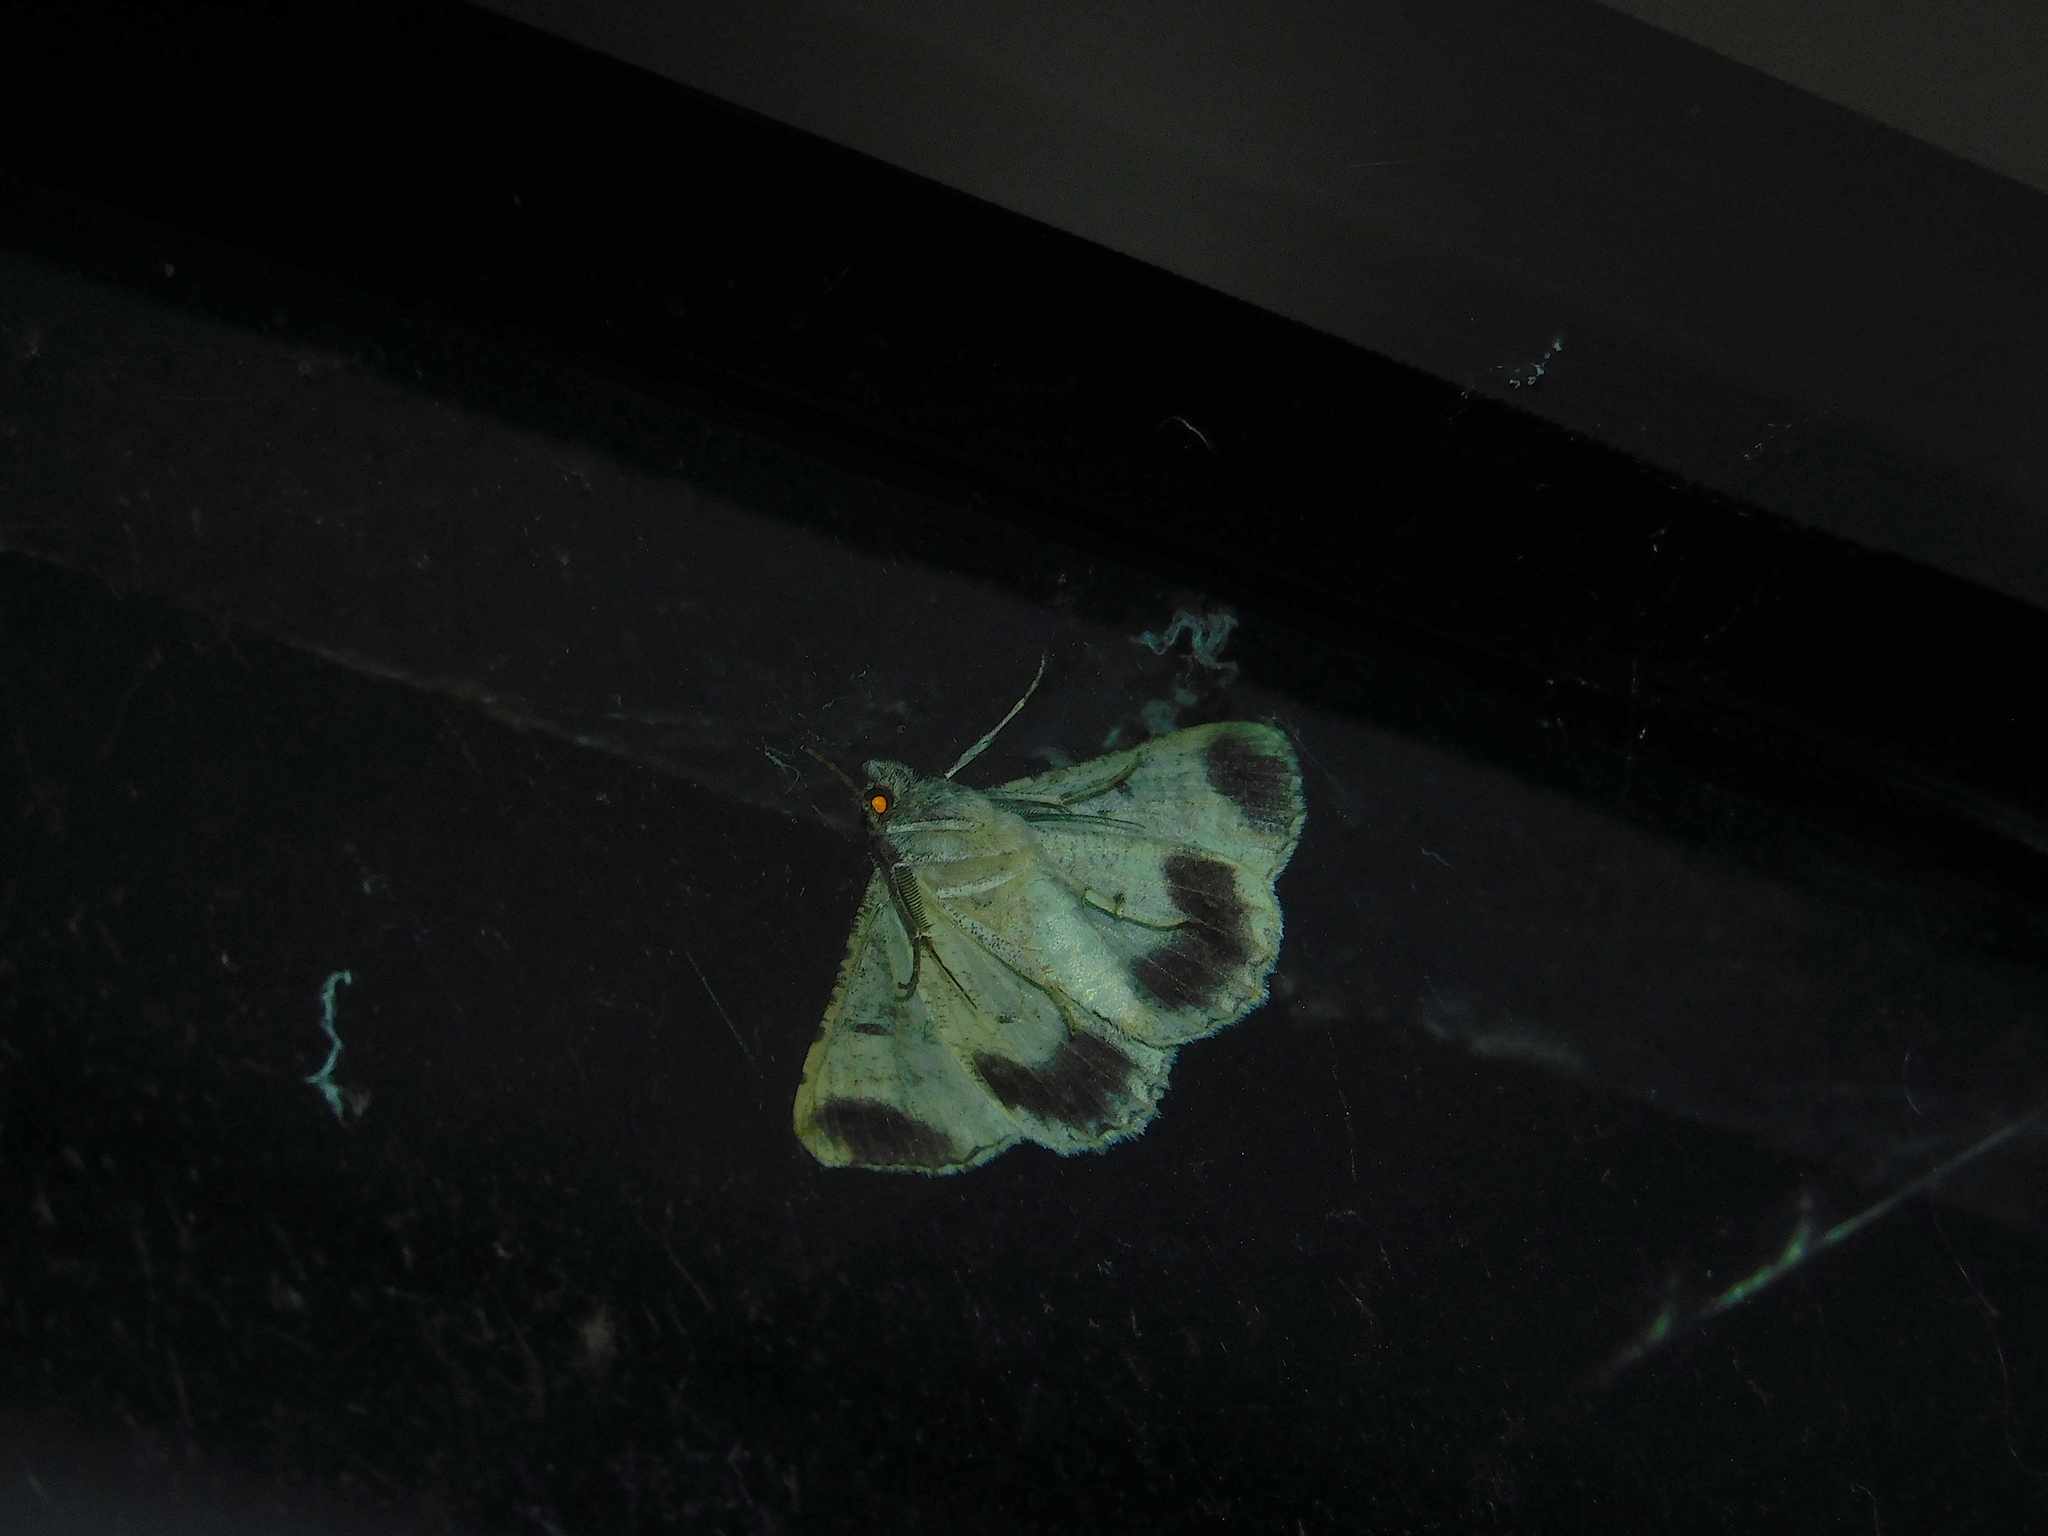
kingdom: Animalia
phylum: Arthropoda
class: Insecta
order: Lepidoptera
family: Geometridae
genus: Gastrinodes
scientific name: Gastrinodes bitaeniaria
